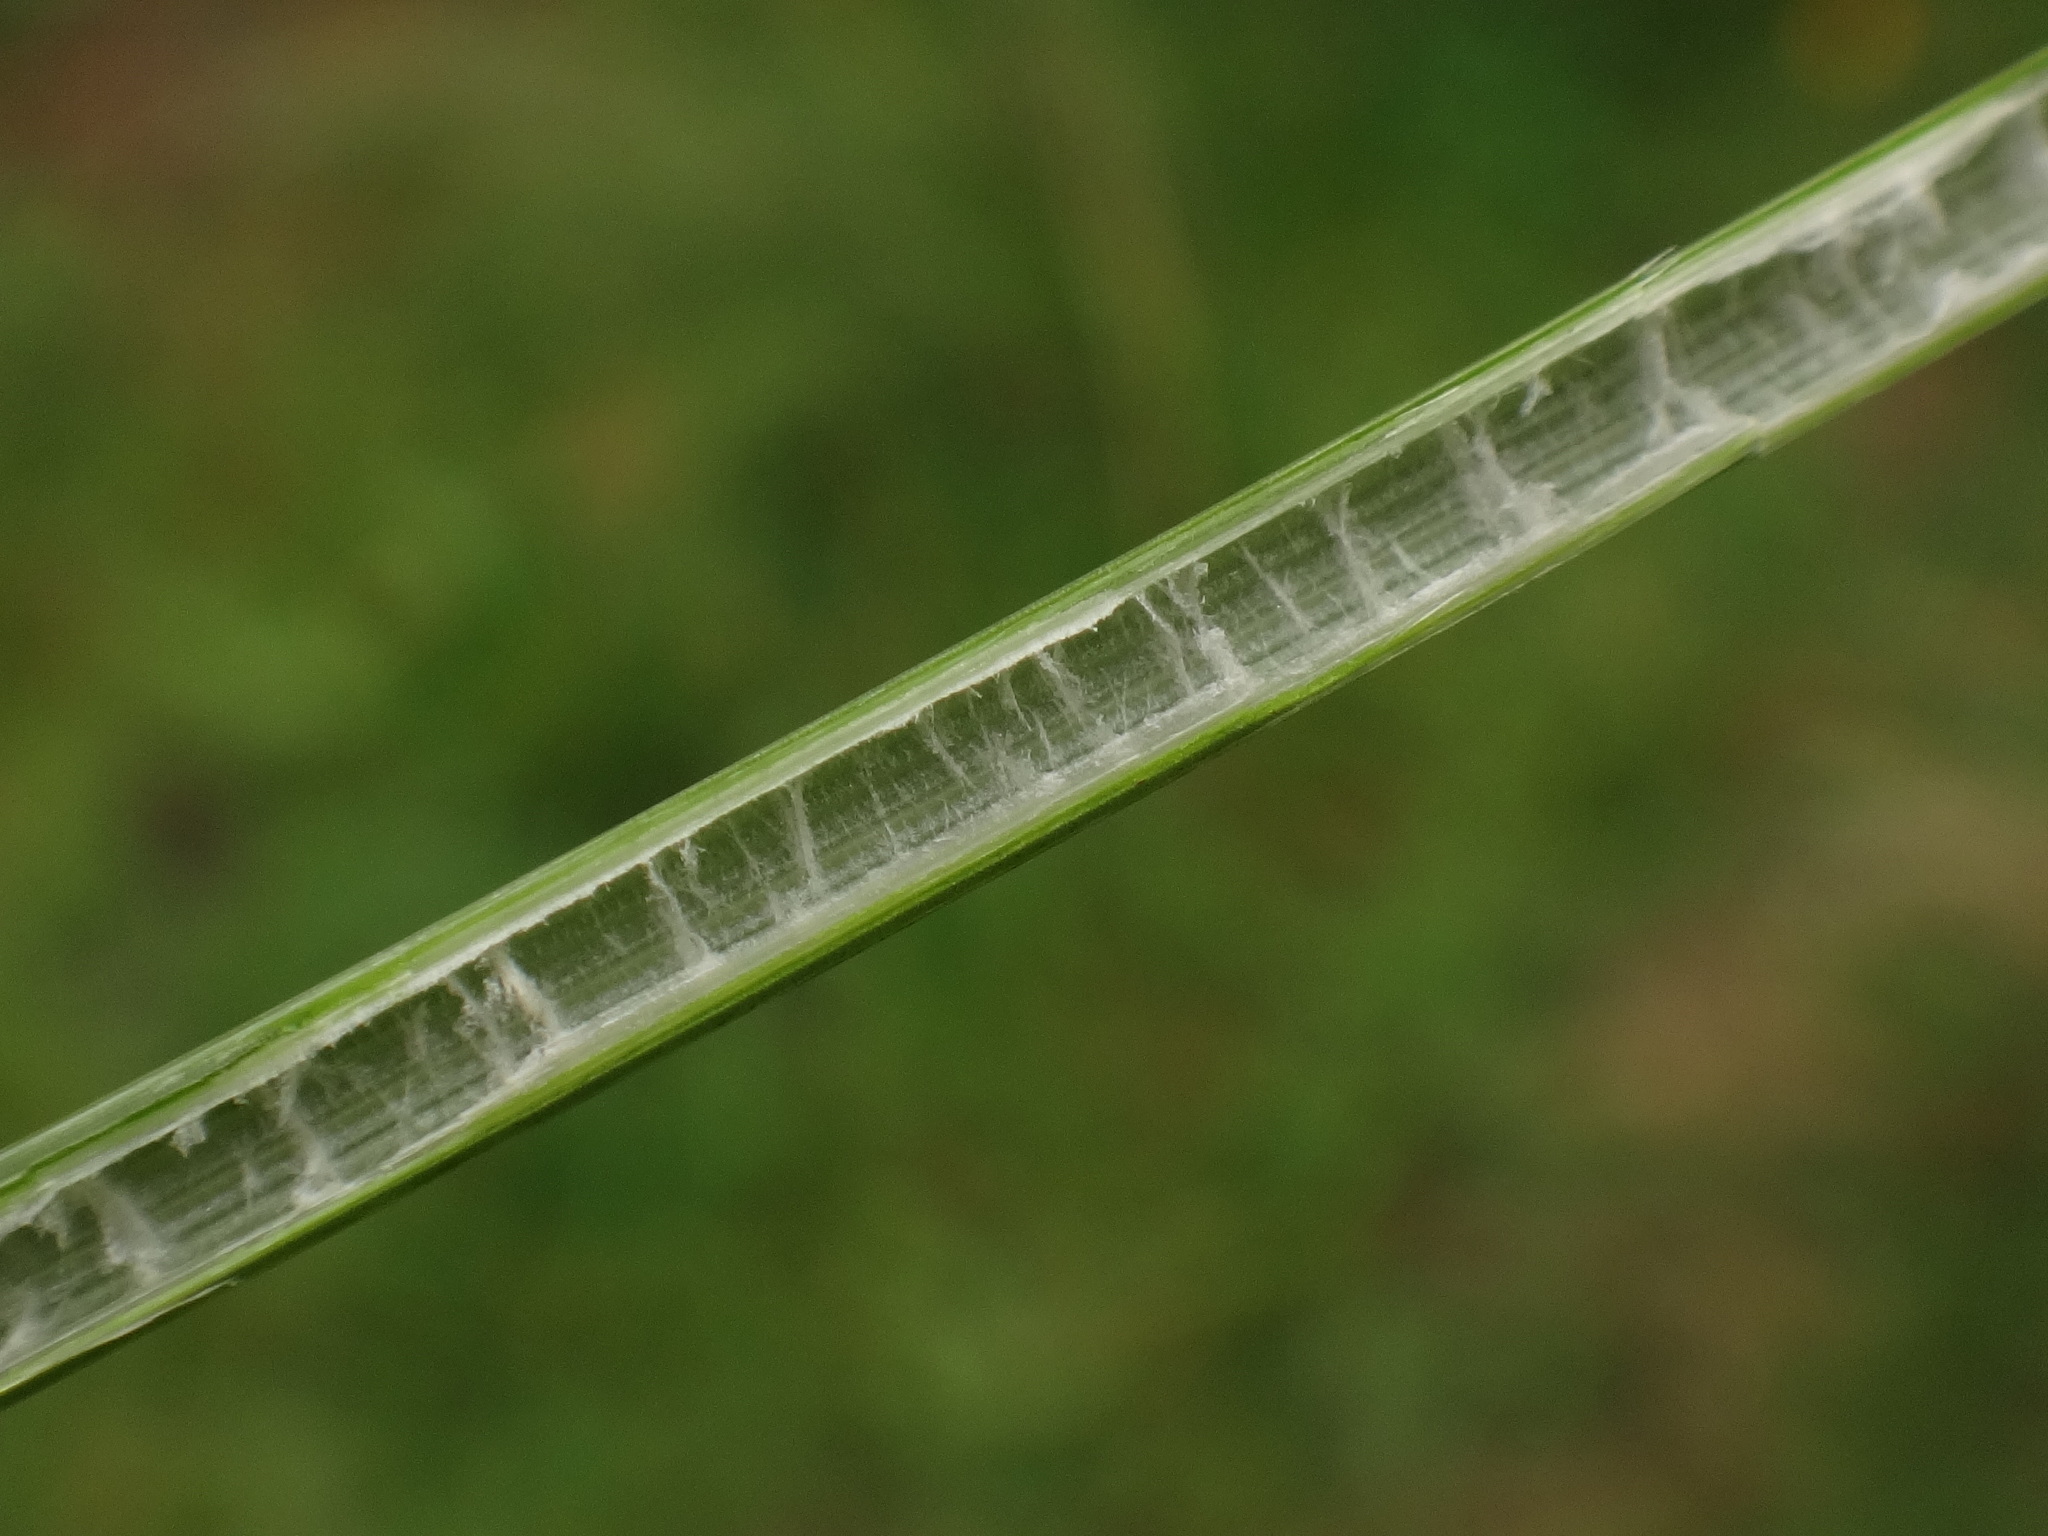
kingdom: Plantae
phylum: Tracheophyta
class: Liliopsida
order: Poales
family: Juncaceae
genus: Juncus
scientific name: Juncus inflexus
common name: Hard rush
